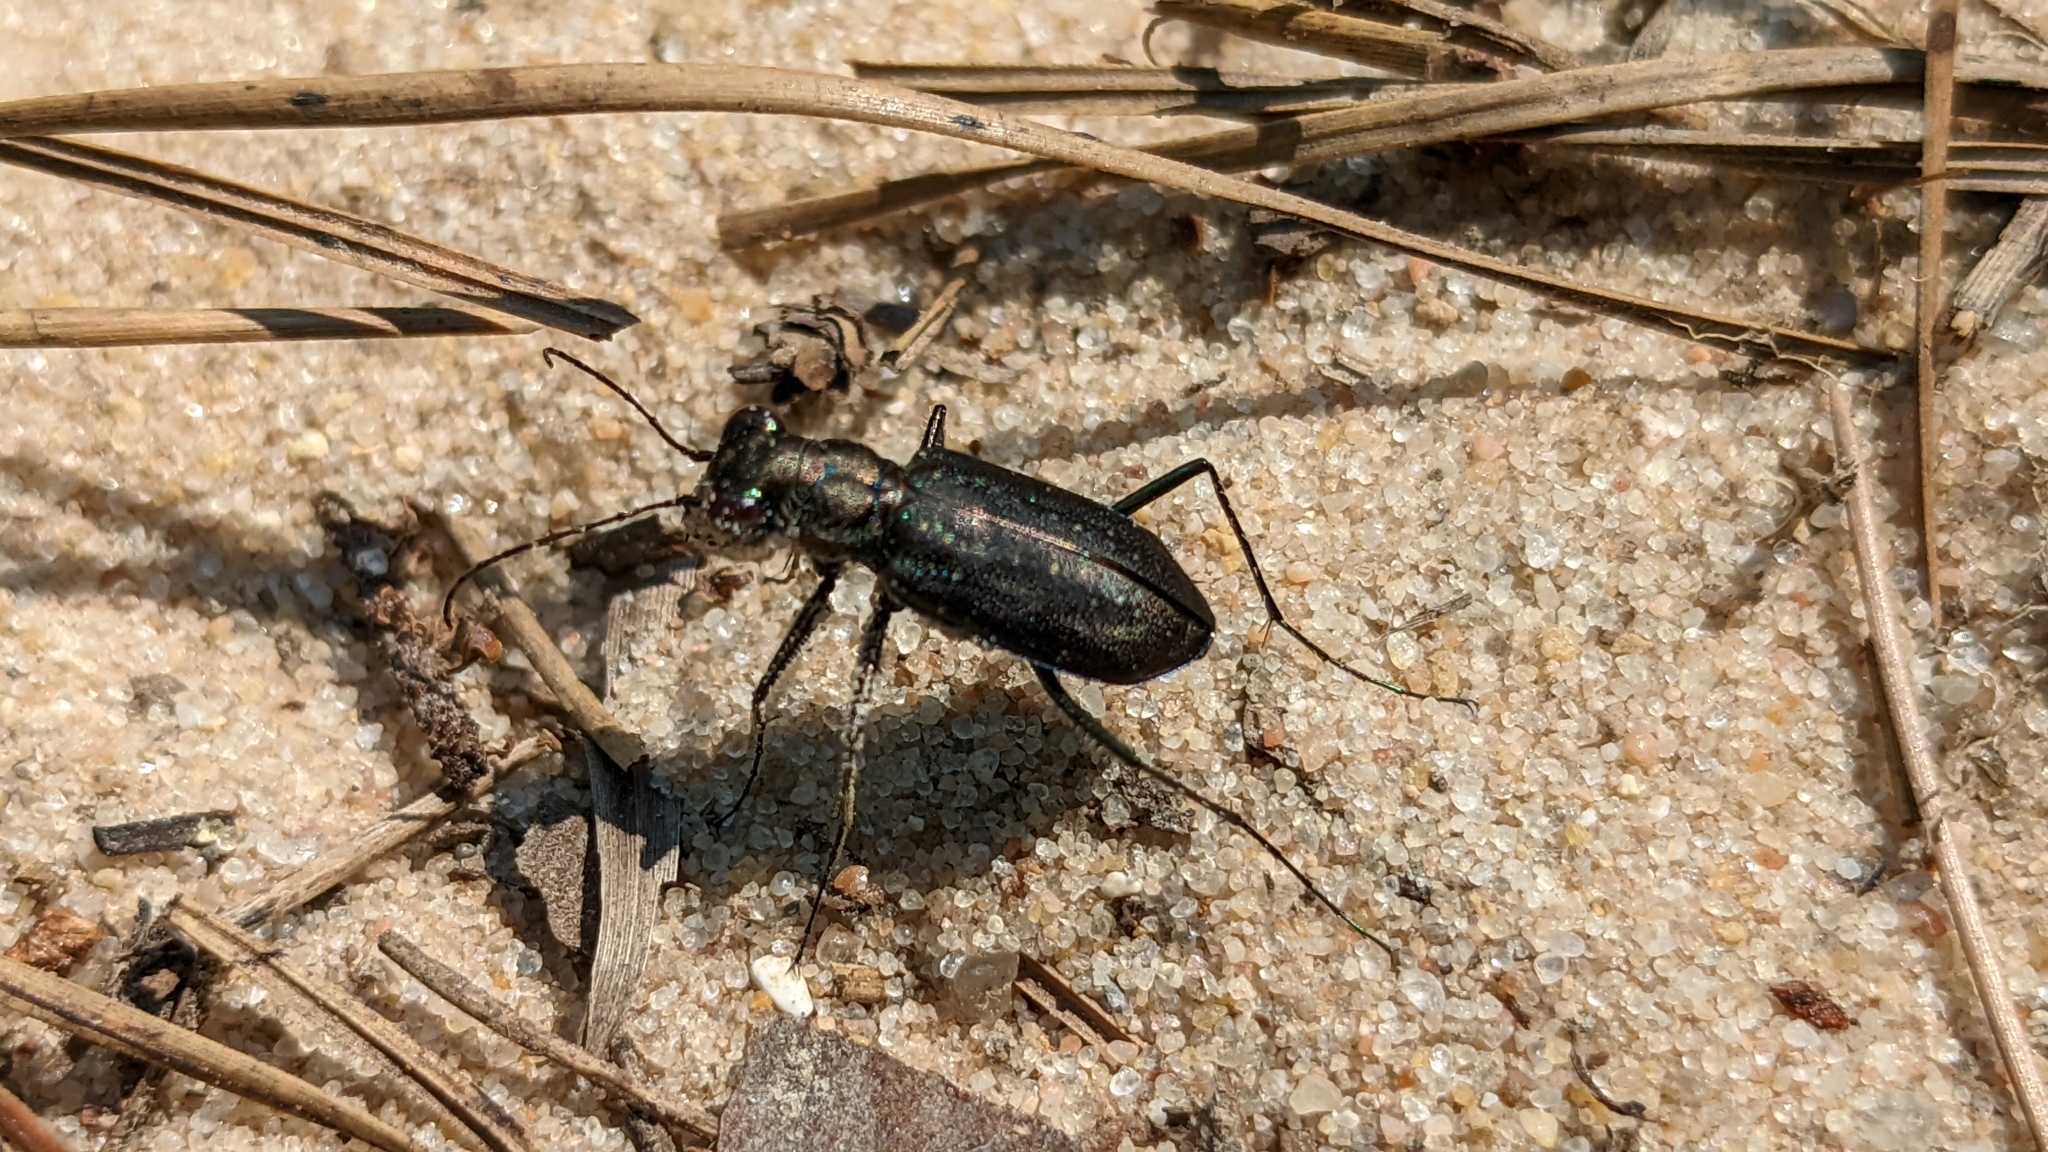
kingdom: Animalia
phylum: Arthropoda
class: Insecta
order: Coleoptera
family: Carabidae
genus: Cicindela
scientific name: Cicindela punctulata
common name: Punctured tiger beetle
